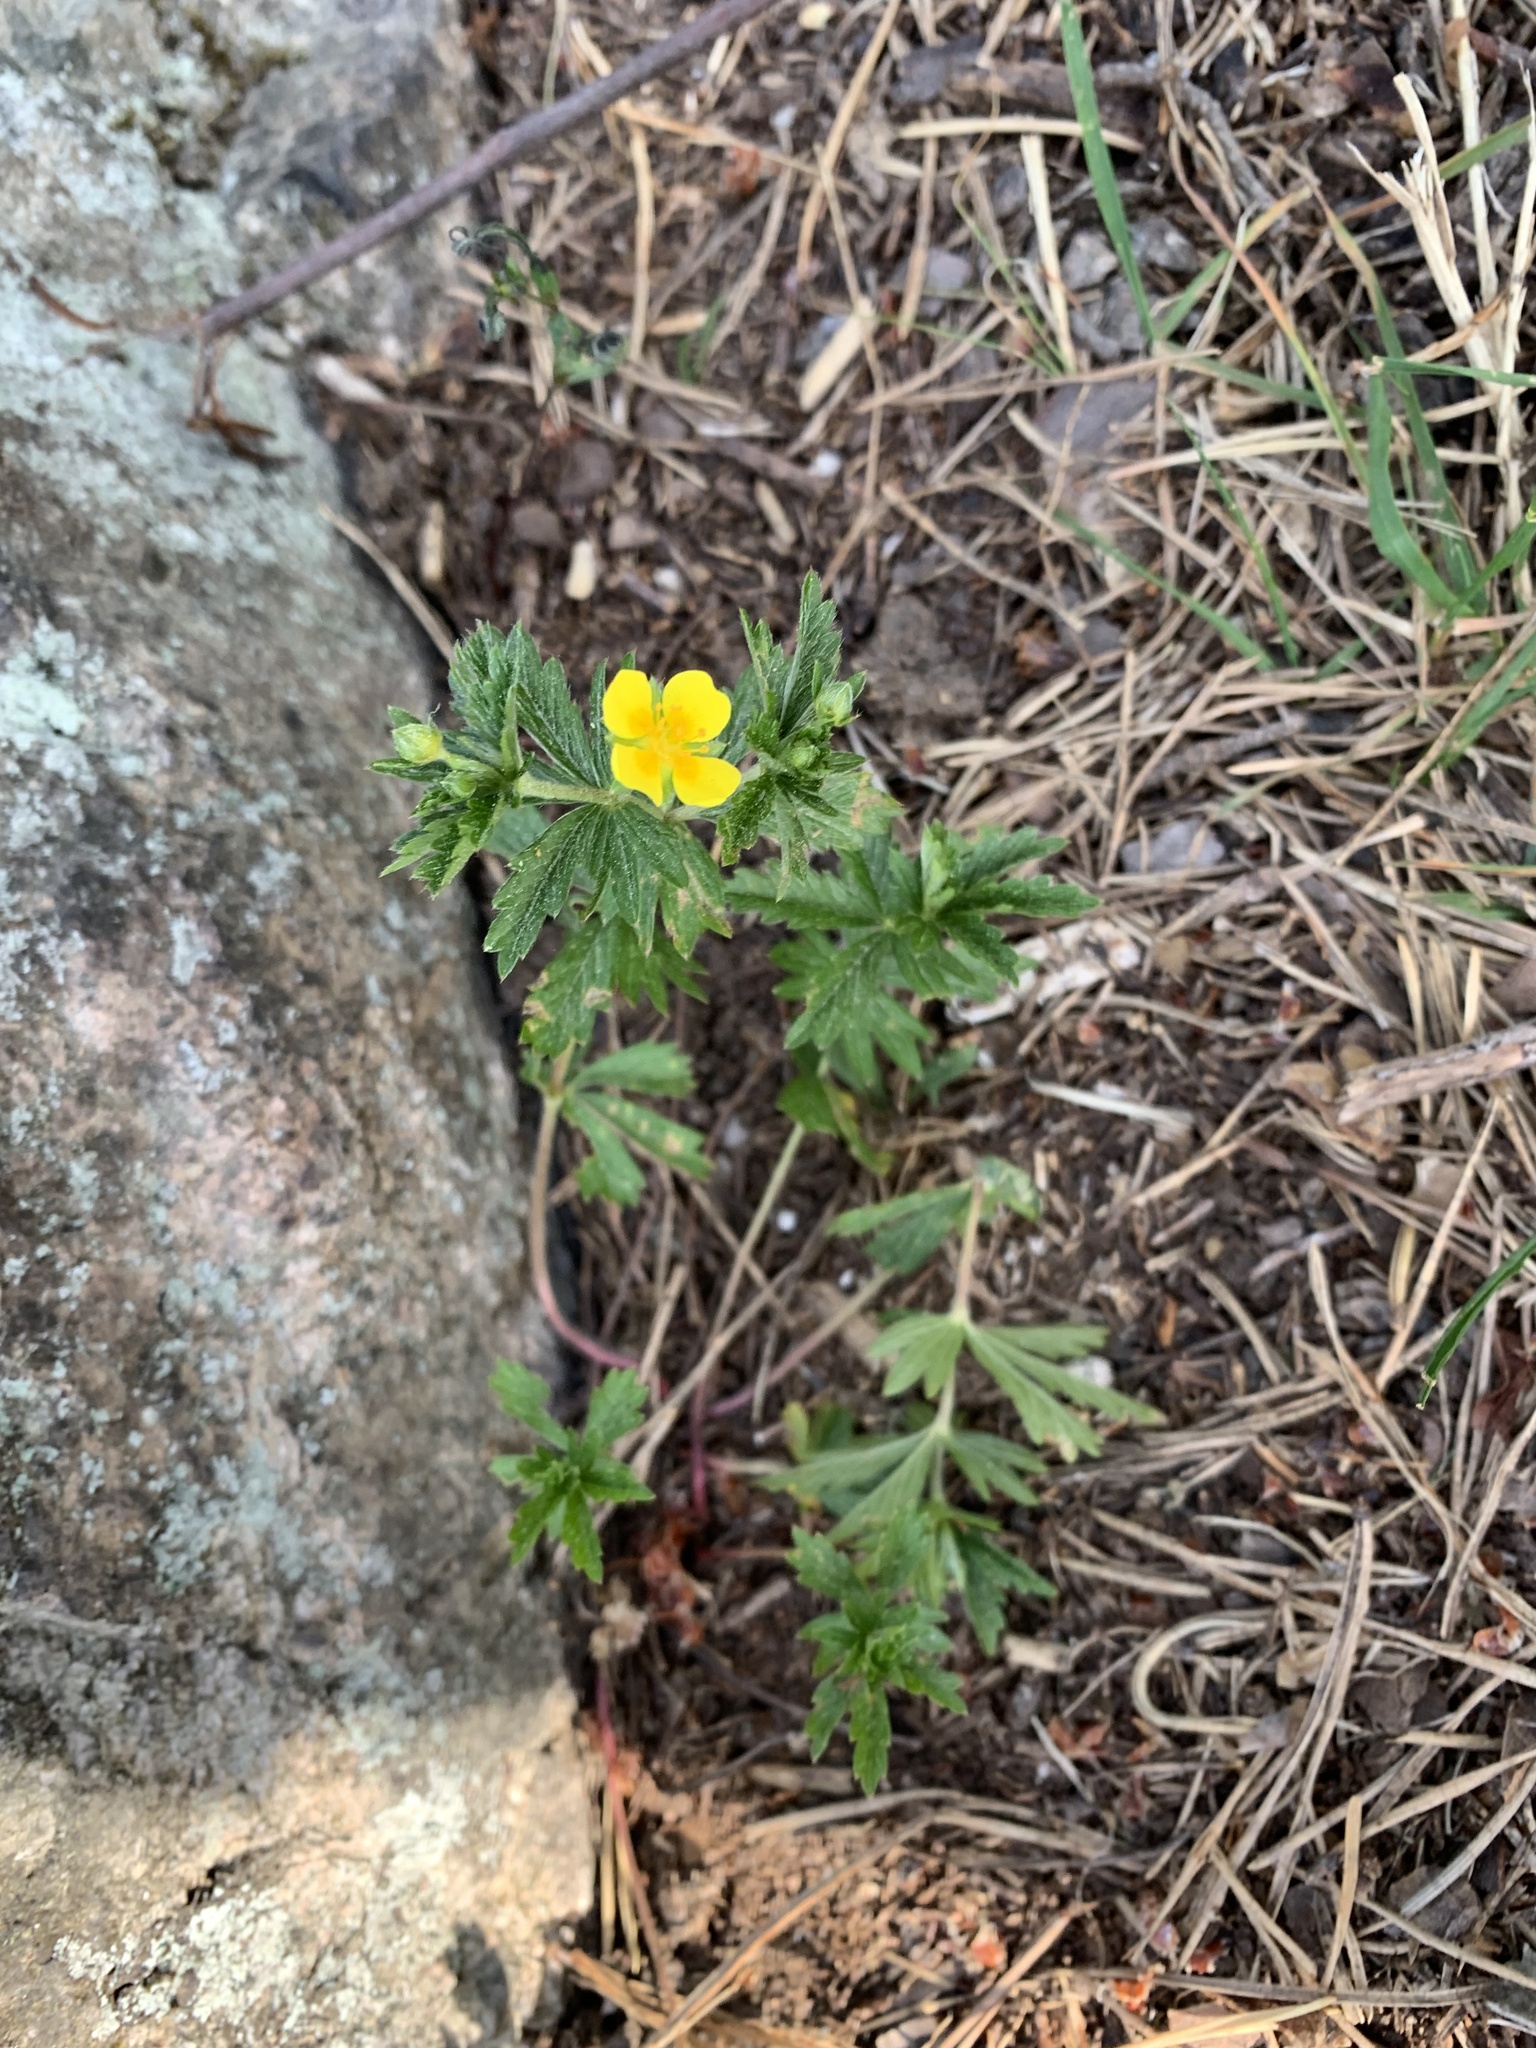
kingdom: Plantae
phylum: Tracheophyta
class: Magnoliopsida
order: Rosales
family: Rosaceae
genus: Potentilla
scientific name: Potentilla erecta
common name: Tormentil
